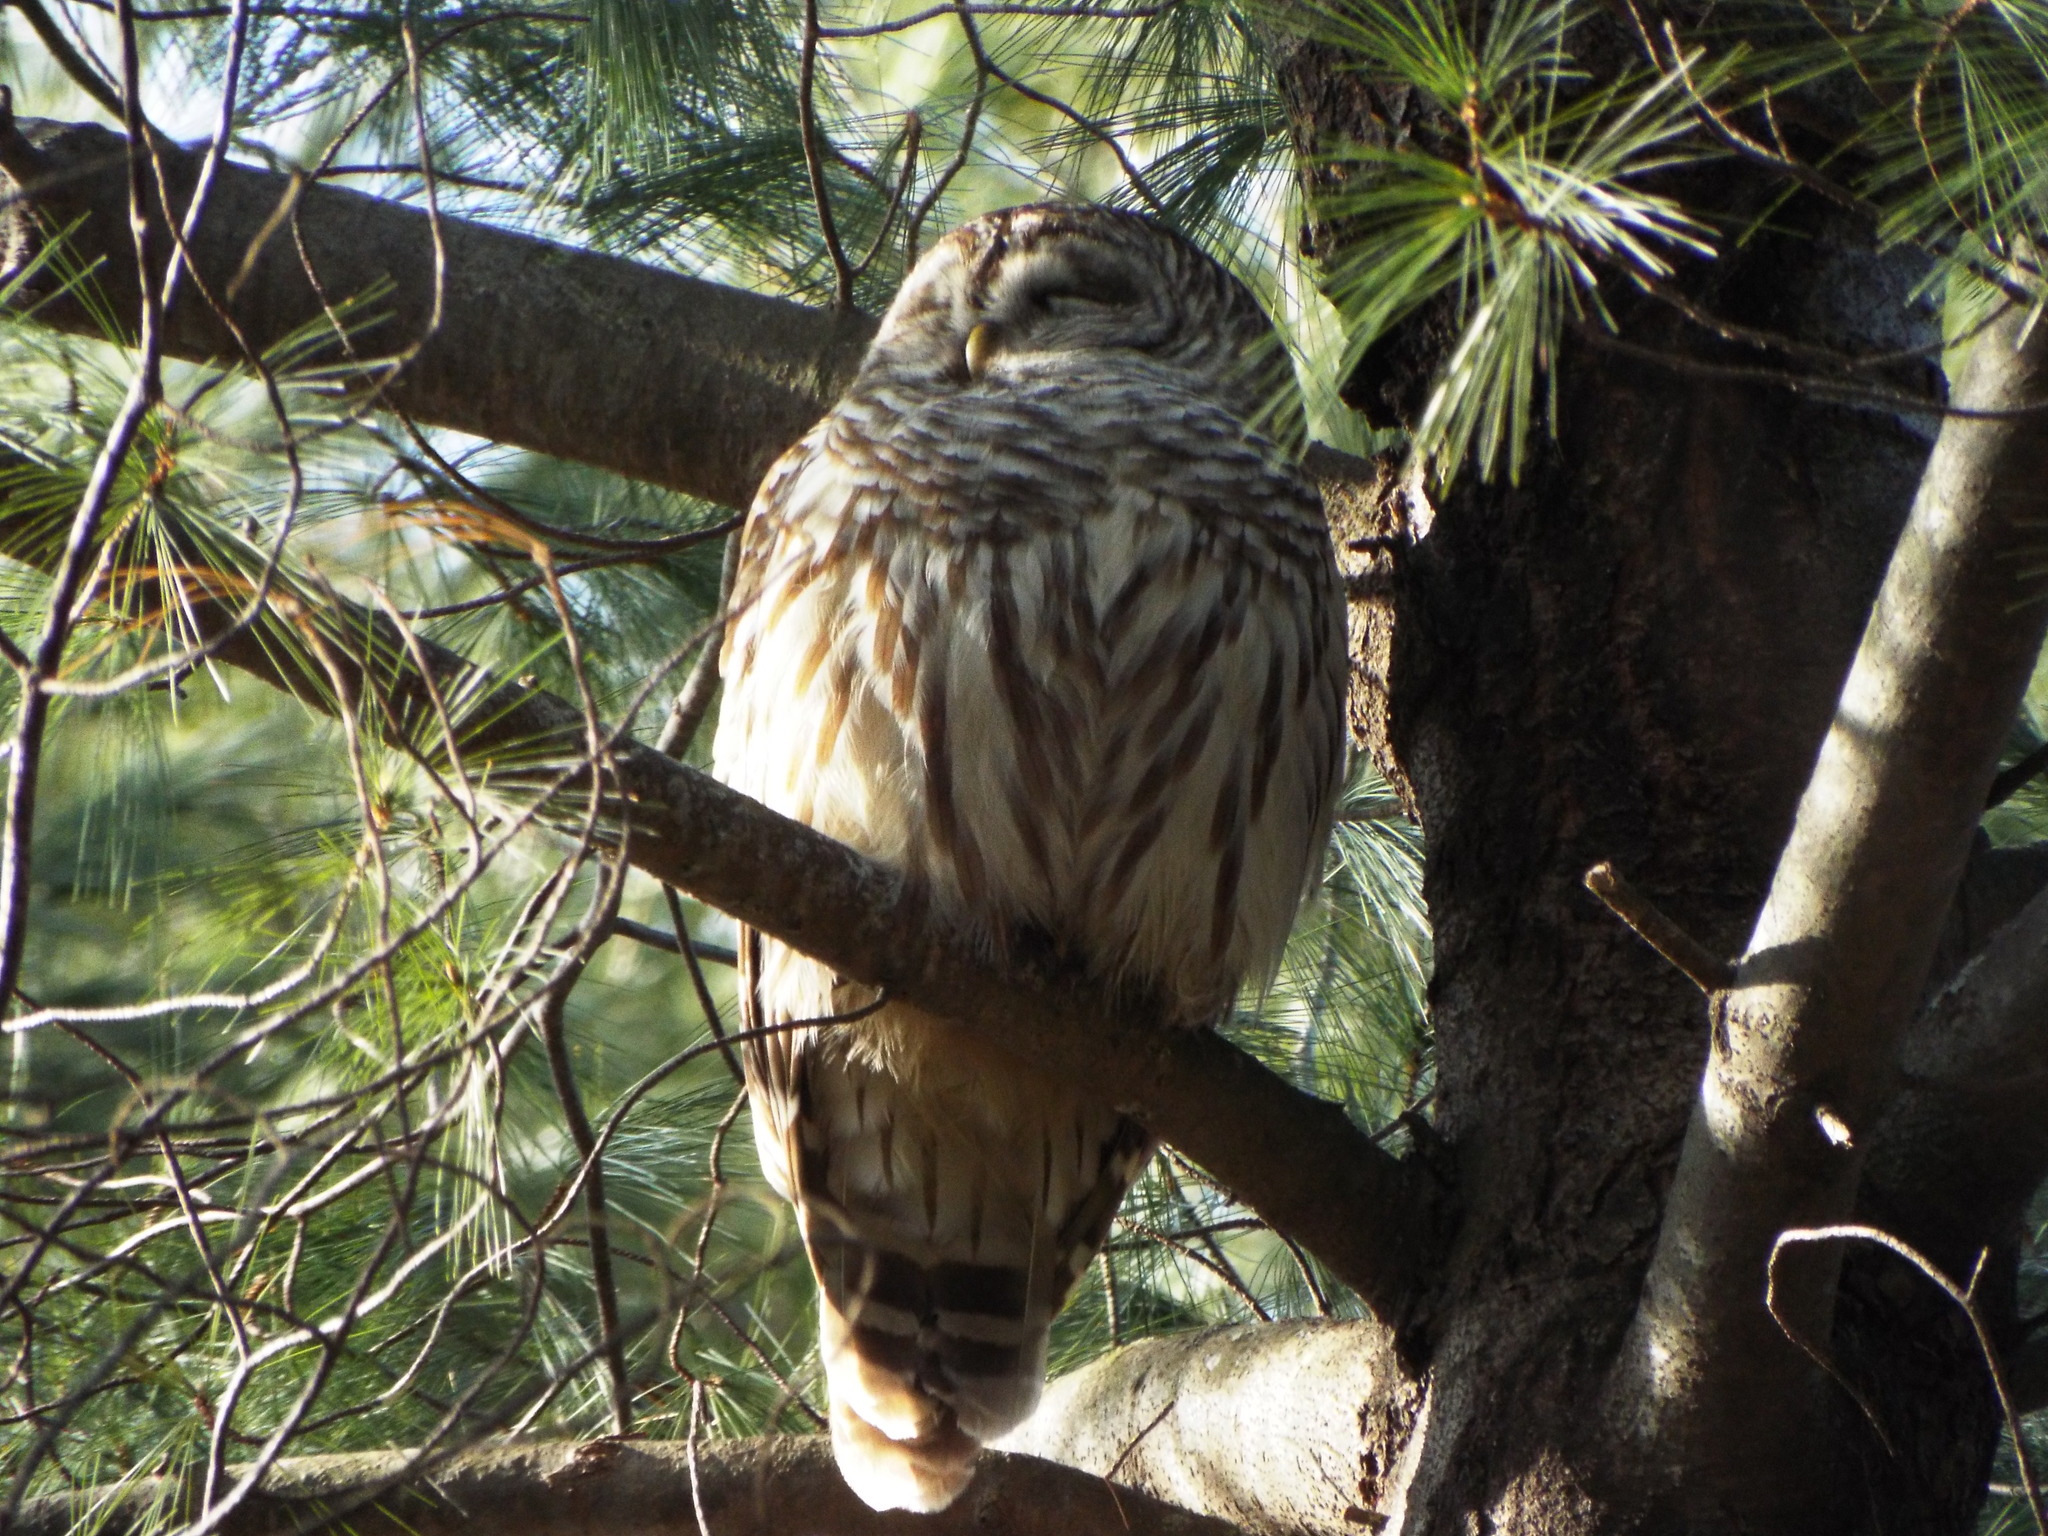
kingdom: Animalia
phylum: Chordata
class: Aves
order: Strigiformes
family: Strigidae
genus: Strix
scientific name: Strix varia
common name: Barred owl
